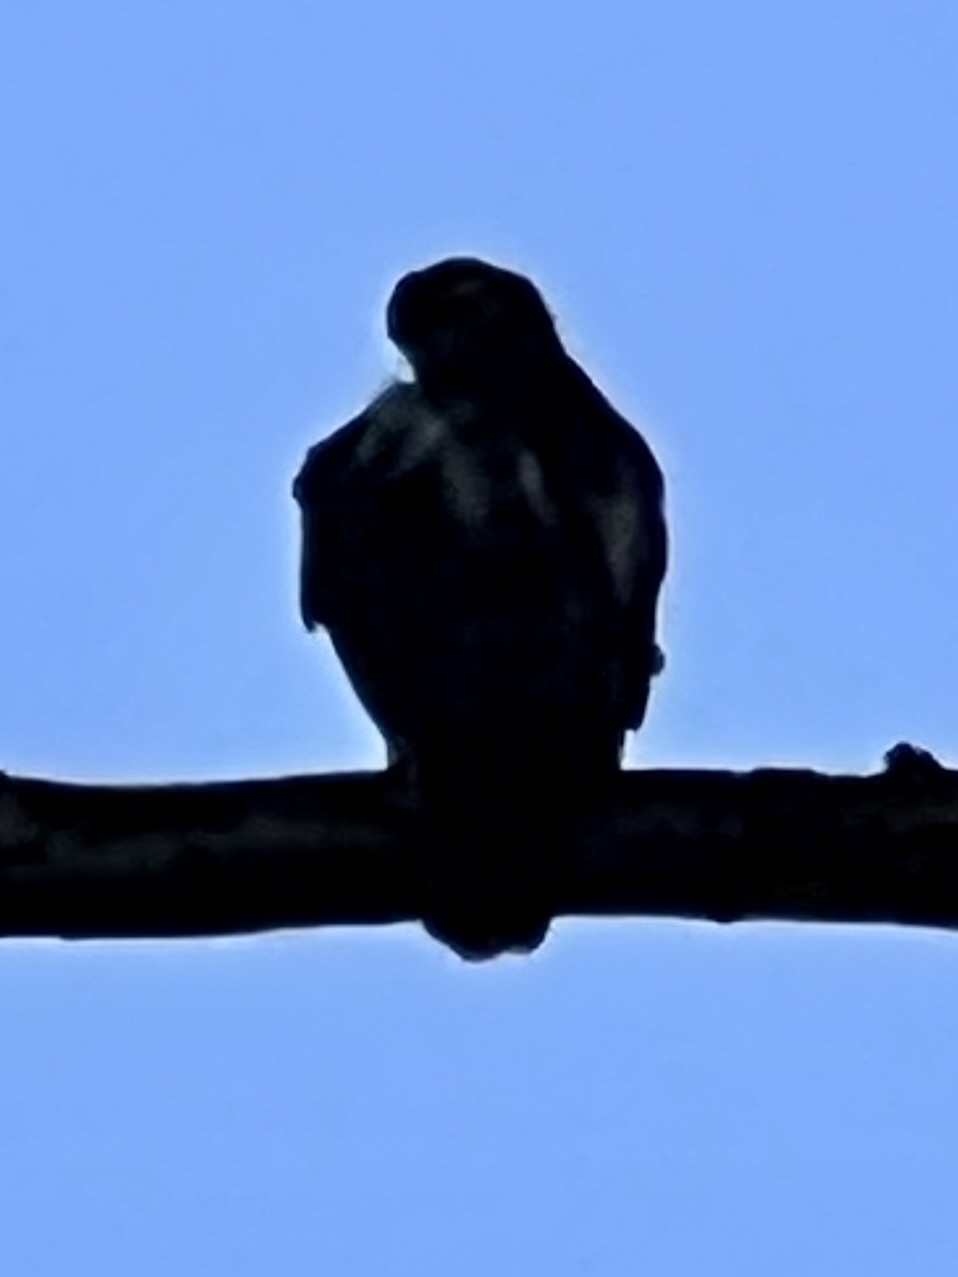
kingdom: Animalia
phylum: Chordata
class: Aves
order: Accipitriformes
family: Accipitridae
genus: Buteo
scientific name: Buteo jamaicensis
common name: Red-tailed hawk
